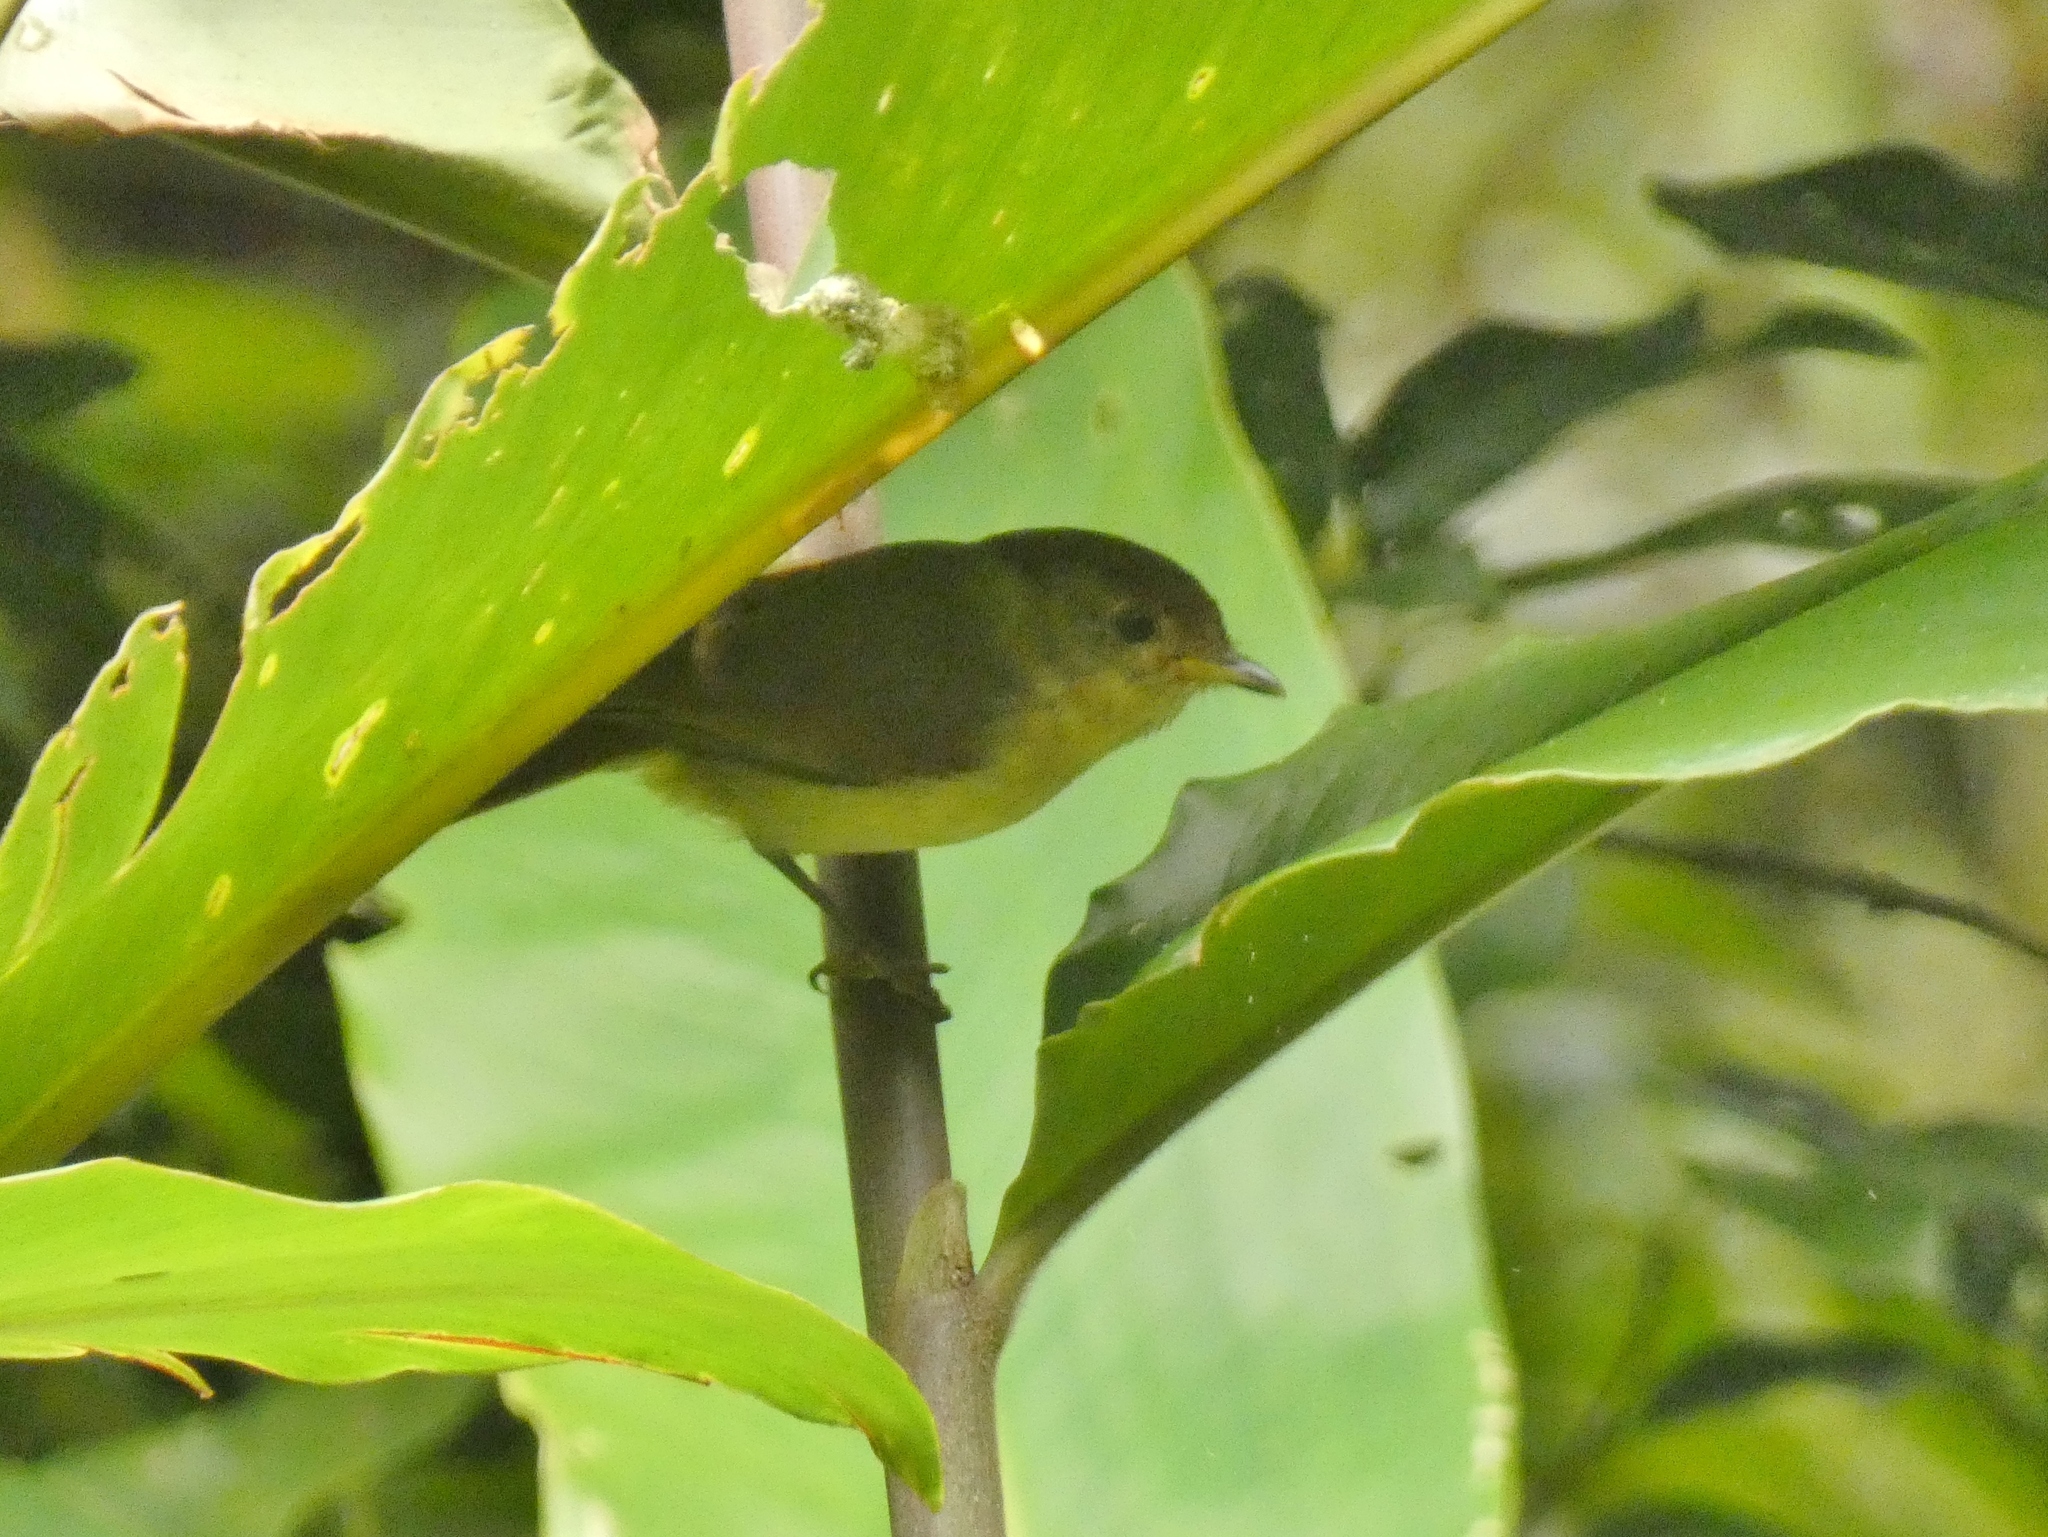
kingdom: Animalia
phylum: Chordata
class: Aves
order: Passeriformes
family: Pellorneidae
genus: Alcippe
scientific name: Alcippe pyrrhoptera
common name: Javan fulvetta
